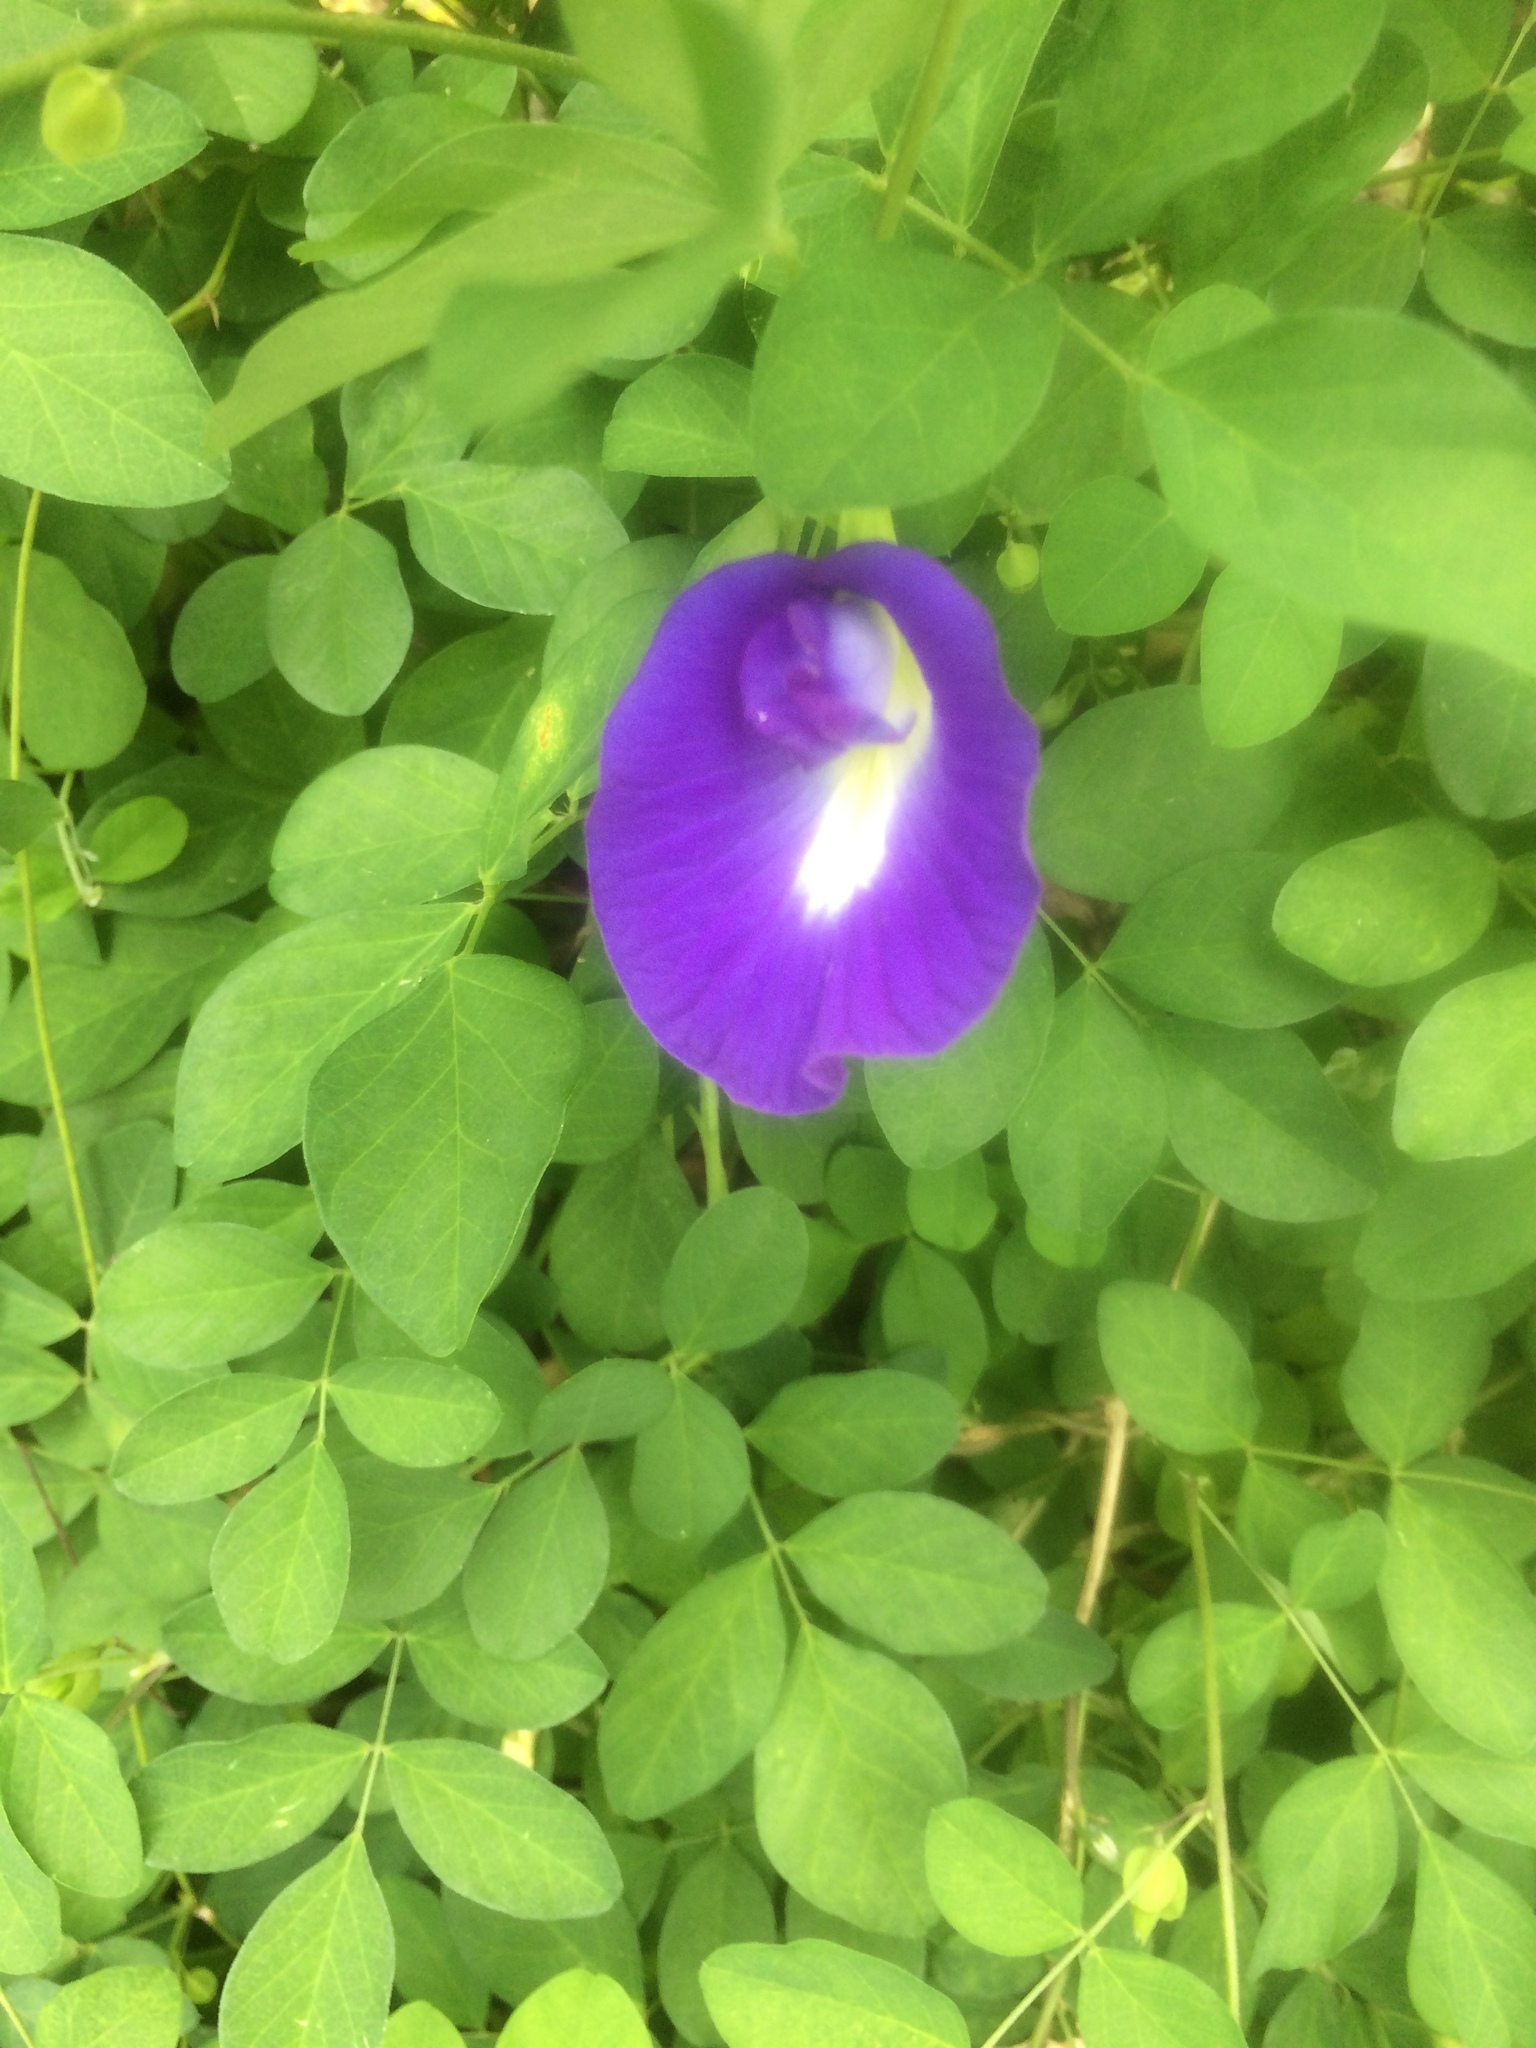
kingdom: Plantae
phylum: Tracheophyta
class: Magnoliopsida
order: Fabales
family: Fabaceae
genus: Clitoria
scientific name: Clitoria ternatea
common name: Asian pigeonwings
